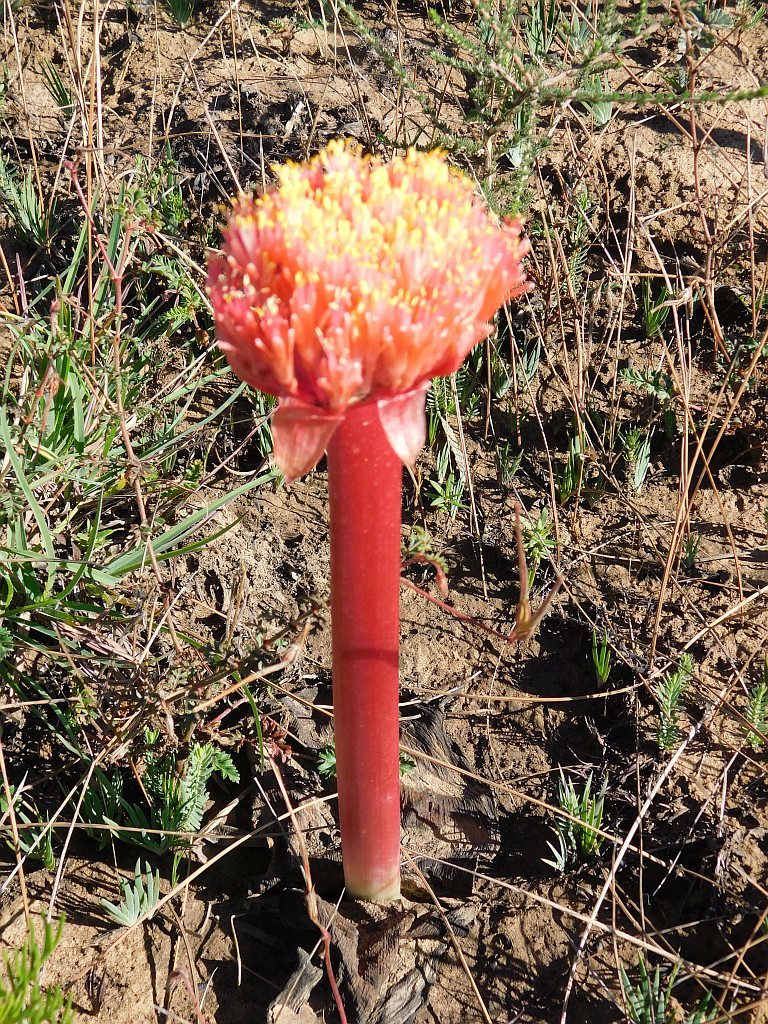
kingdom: Plantae
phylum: Tracheophyta
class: Liliopsida
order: Asparagales
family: Amaryllidaceae
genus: Haemanthus
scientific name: Haemanthus sanguineus
